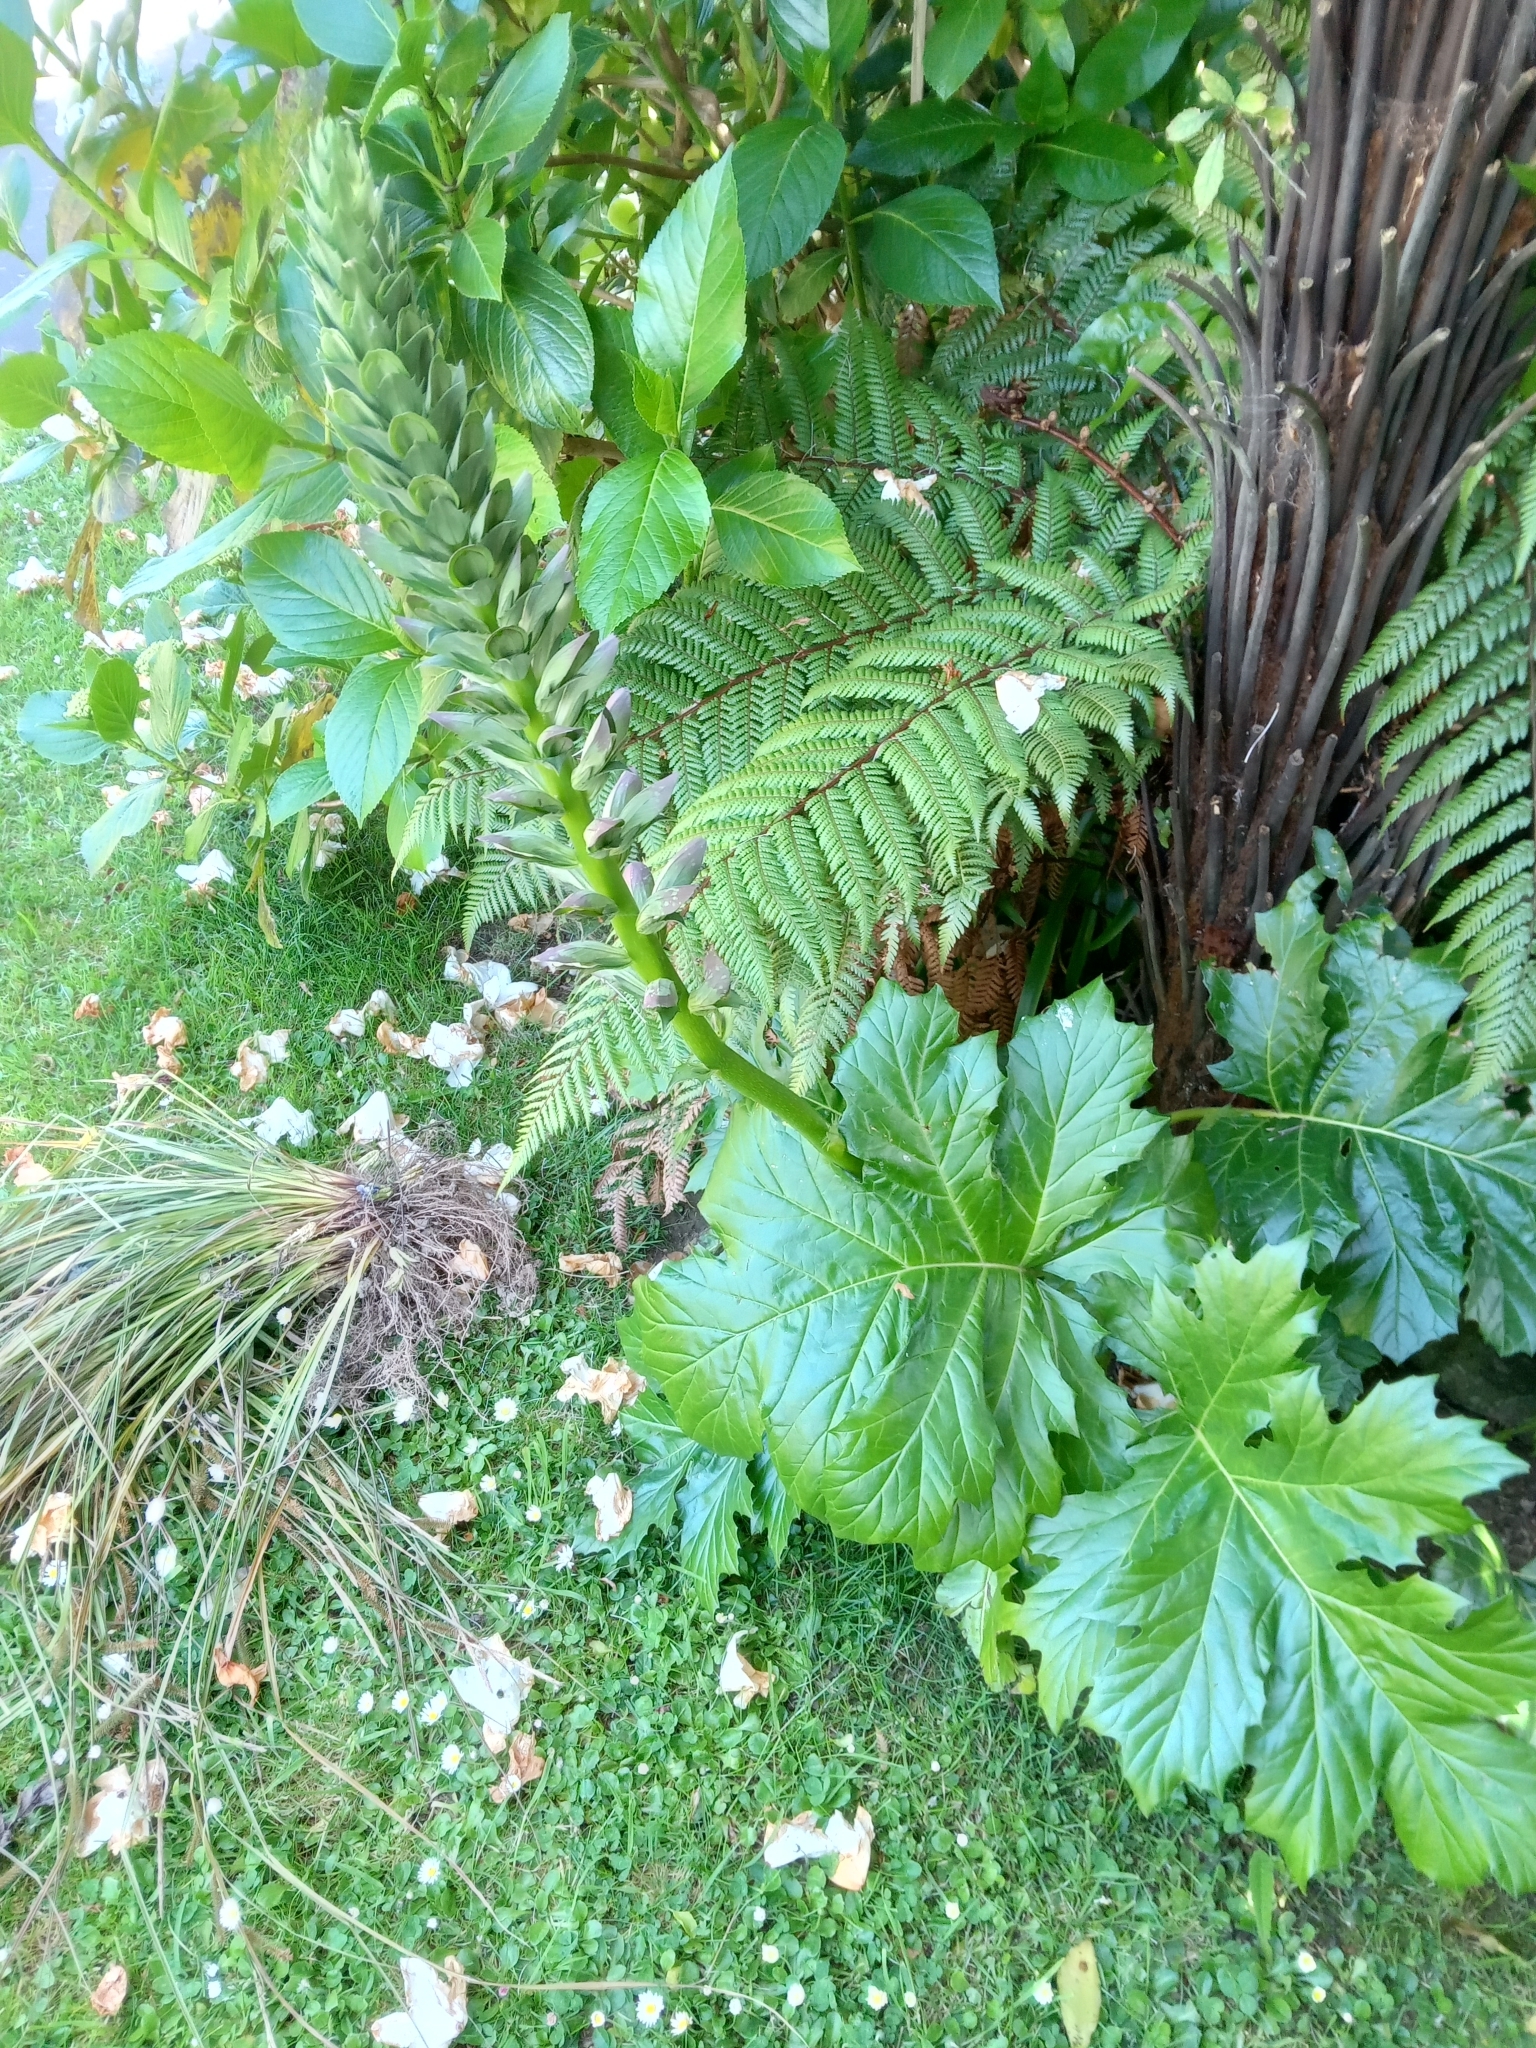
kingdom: Plantae
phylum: Tracheophyta
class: Magnoliopsida
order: Lamiales
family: Acanthaceae
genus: Acanthus
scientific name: Acanthus mollis
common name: Bear's-breech
